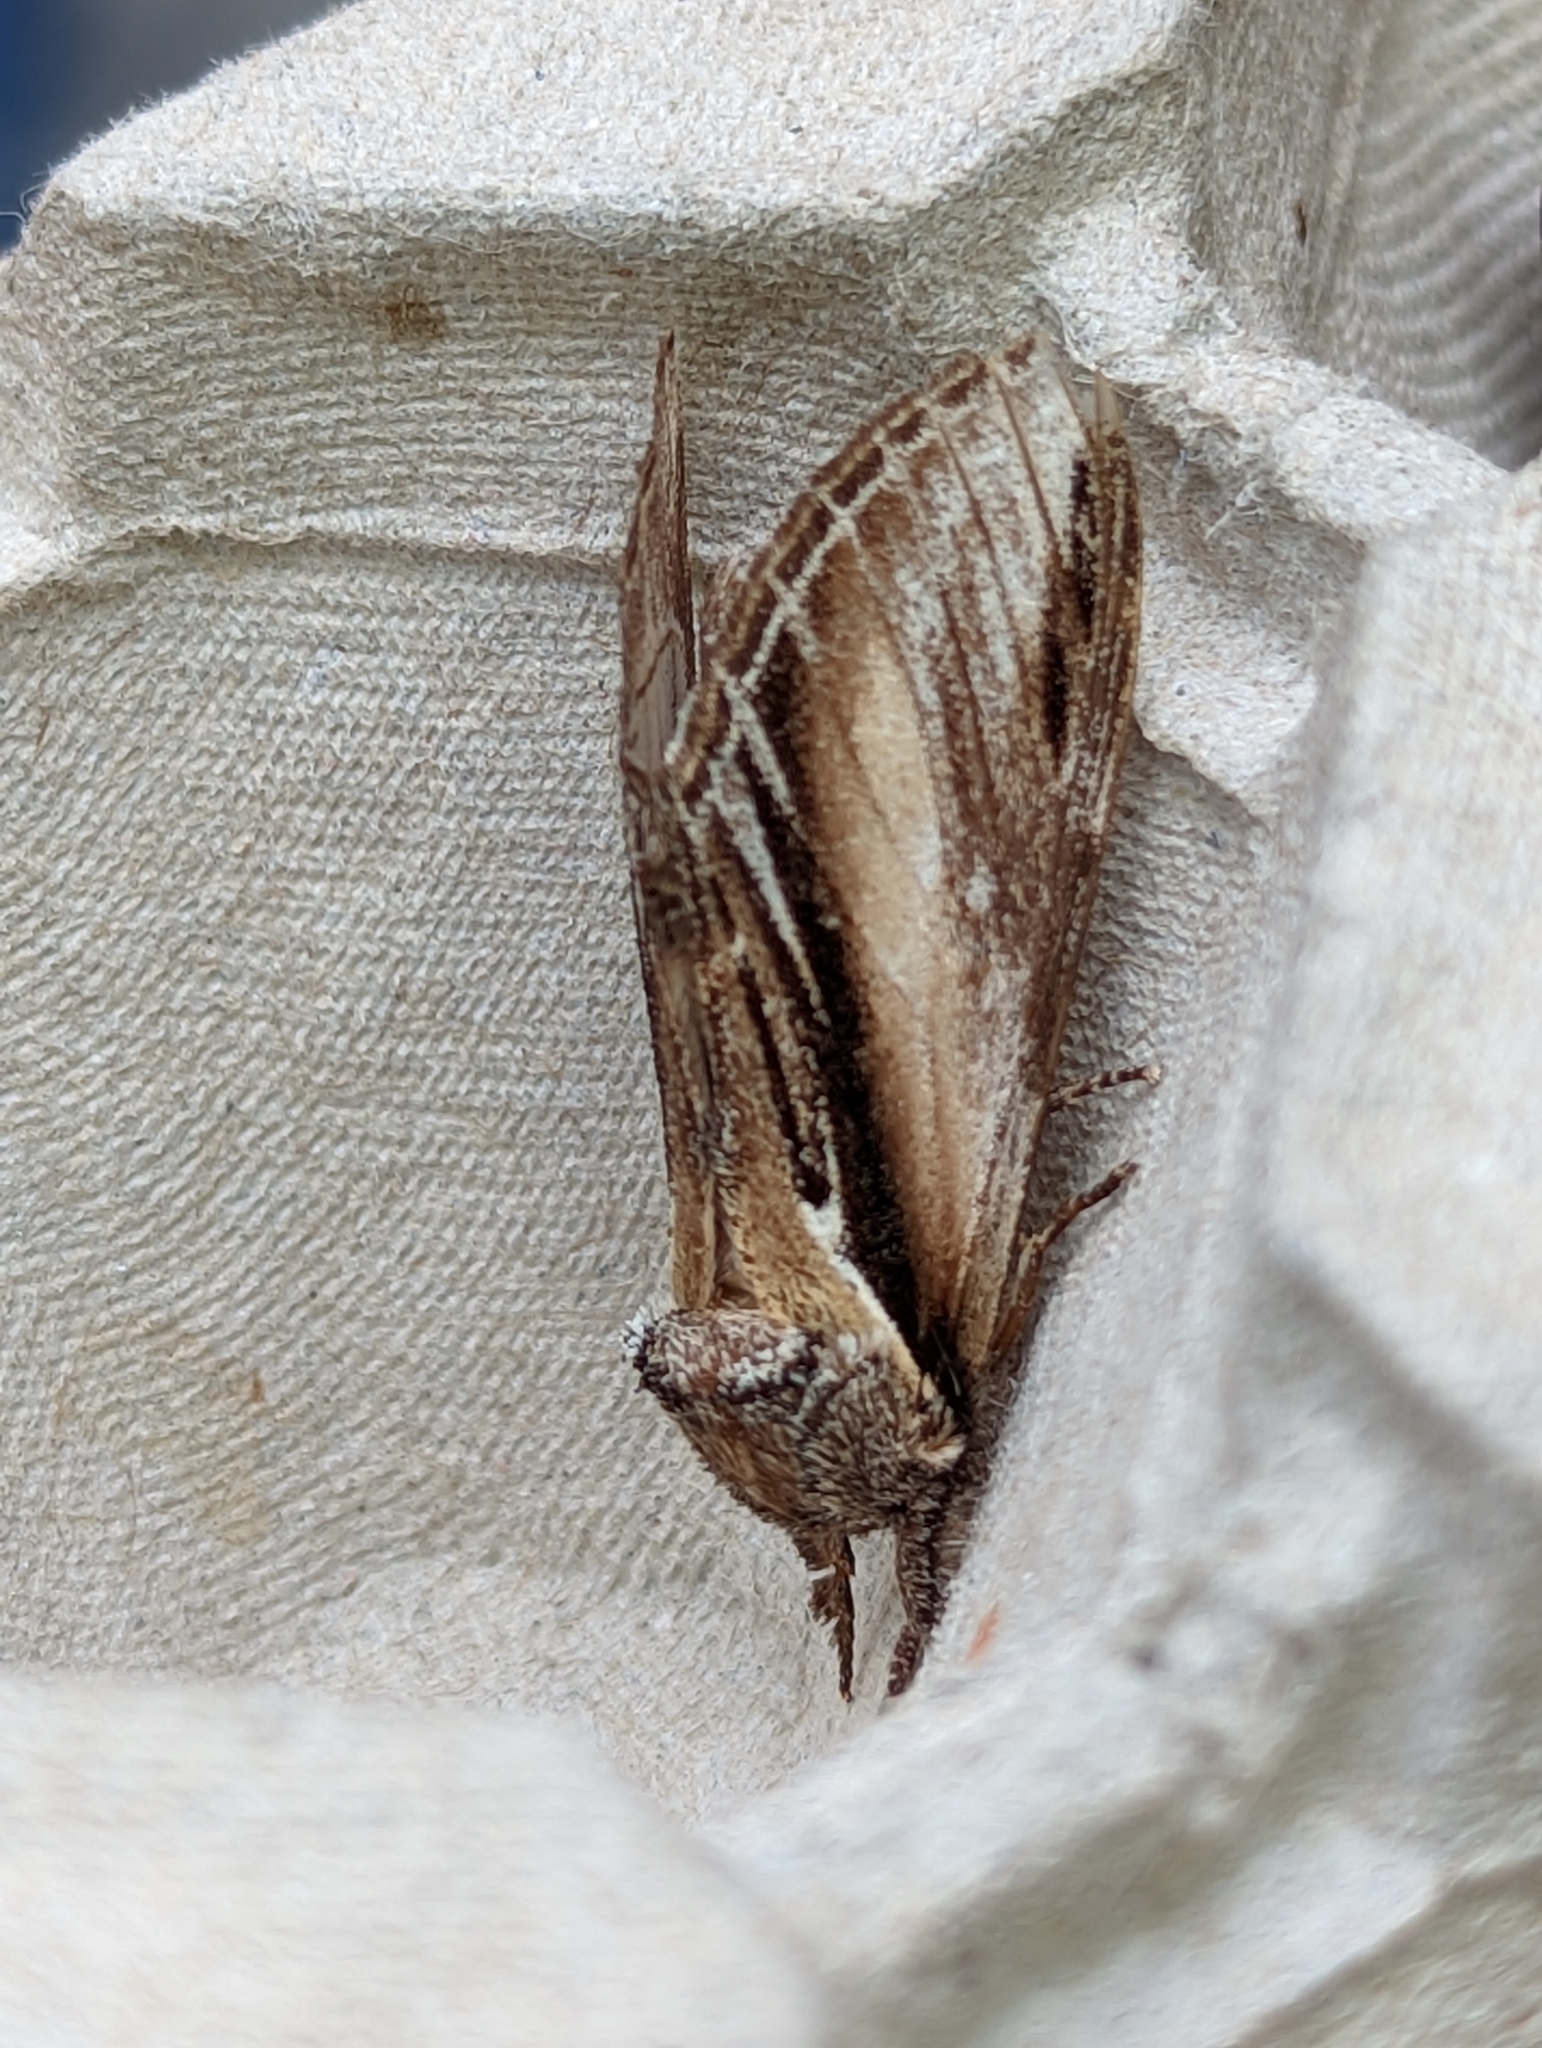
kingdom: Animalia
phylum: Arthropoda
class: Insecta
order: Lepidoptera
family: Notodontidae
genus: Pheosia
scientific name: Pheosia tremula
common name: Swallow prominent
